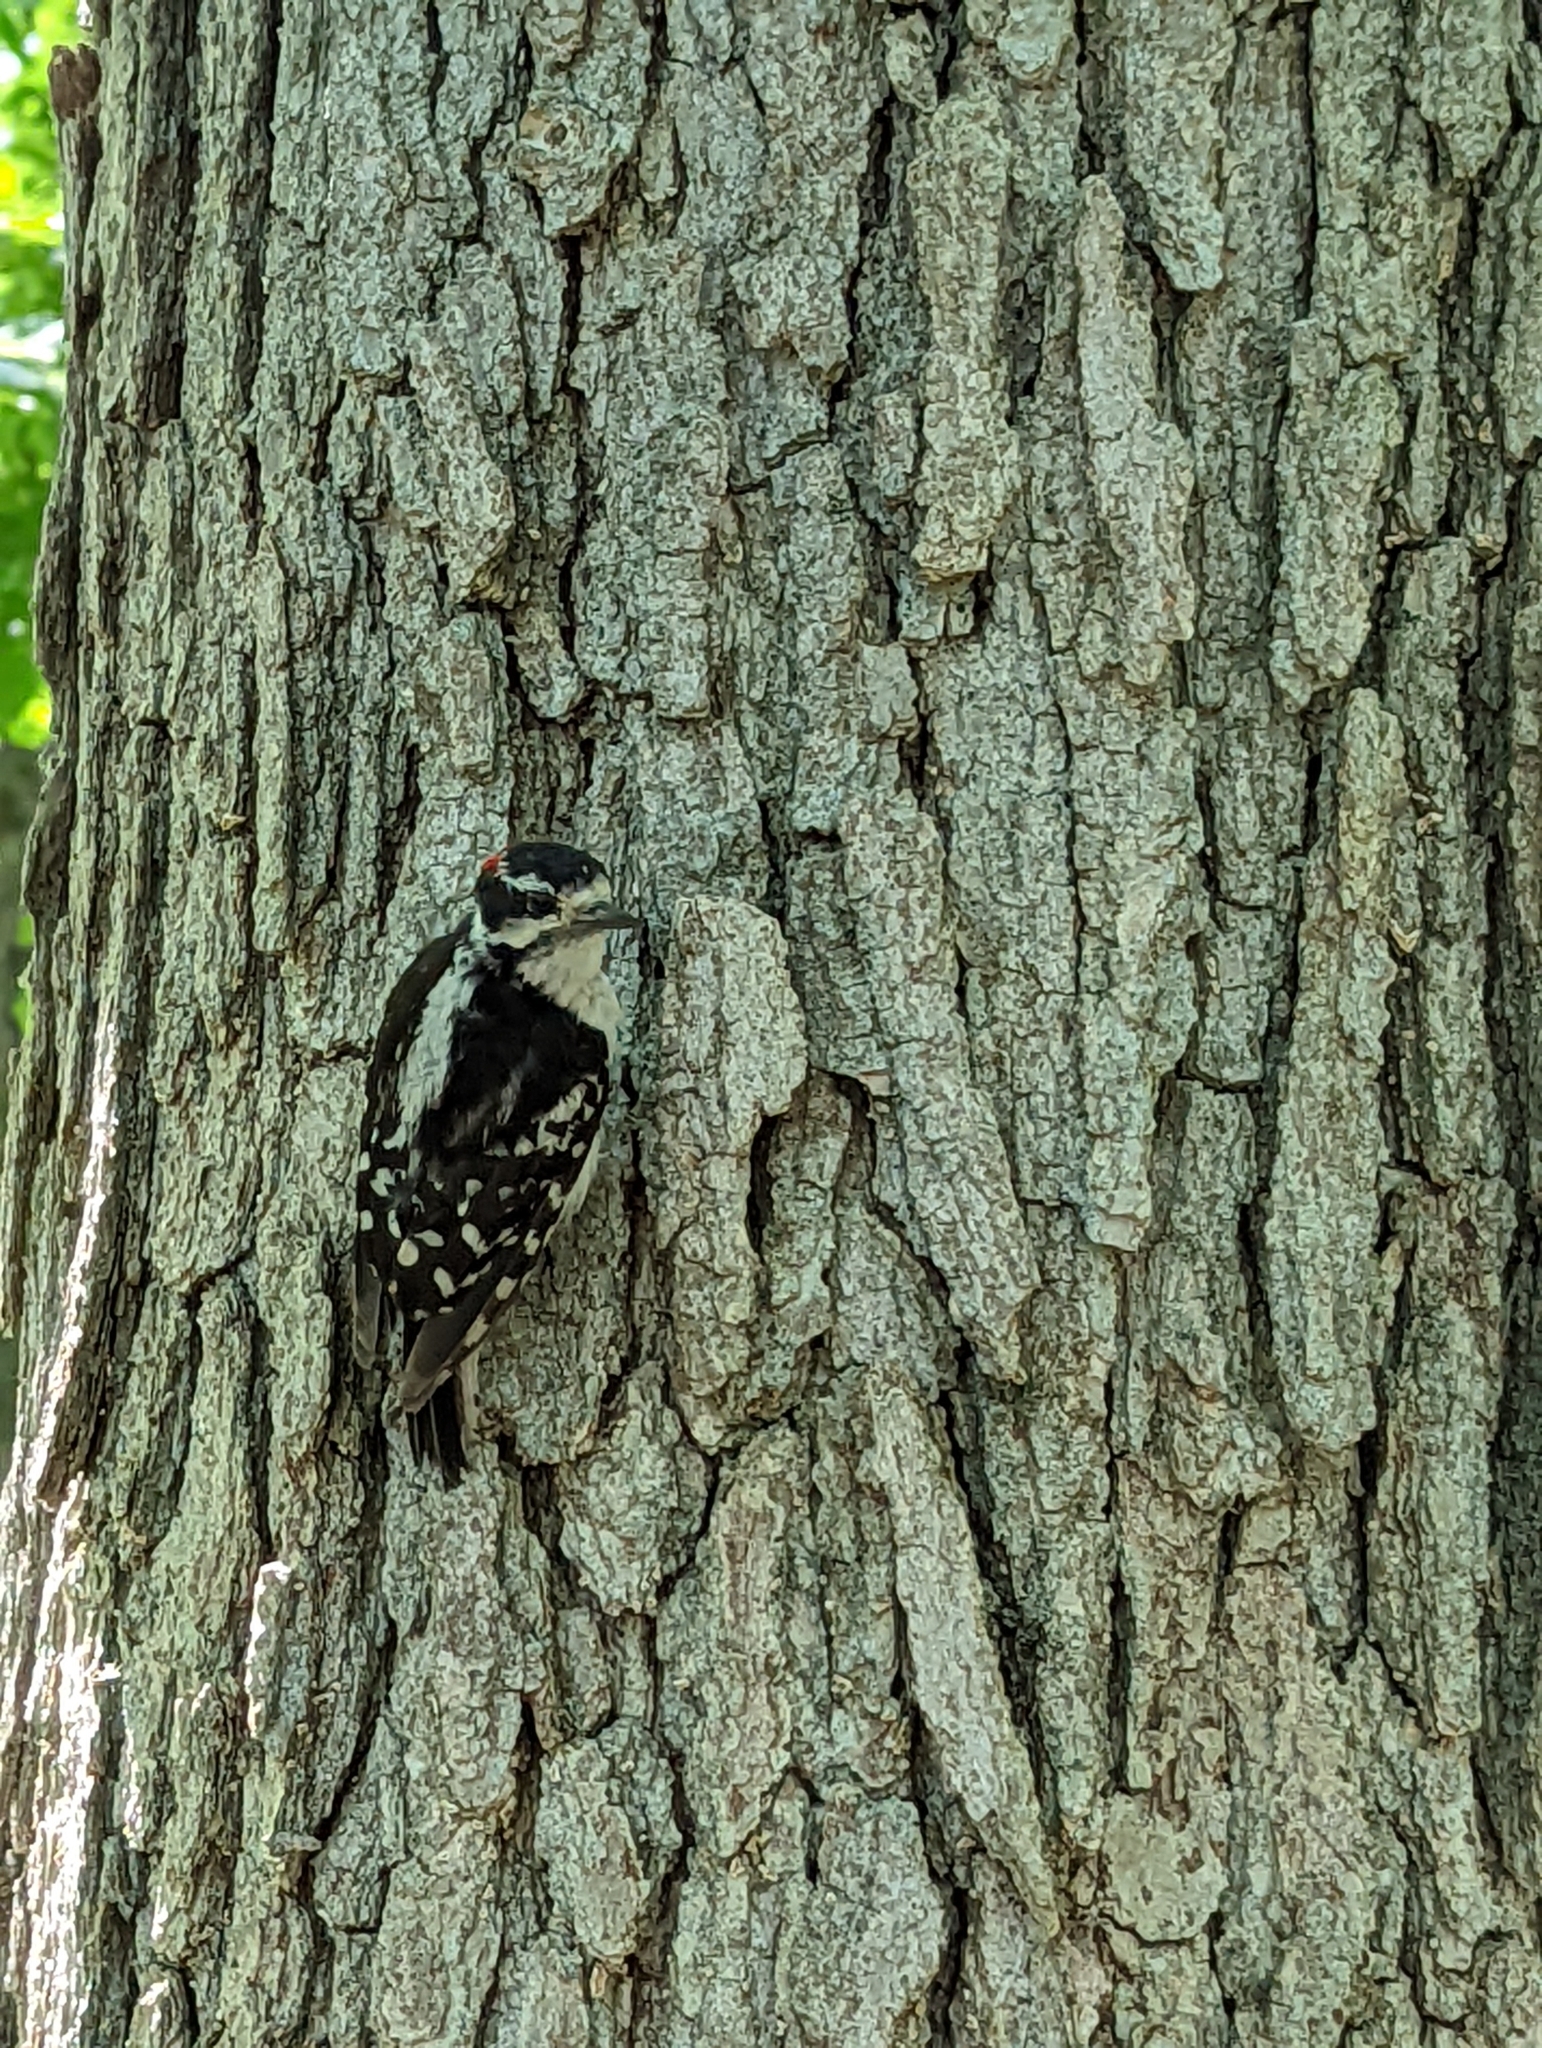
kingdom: Animalia
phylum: Chordata
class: Aves
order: Piciformes
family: Picidae
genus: Dryobates
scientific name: Dryobates pubescens
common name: Downy woodpecker
